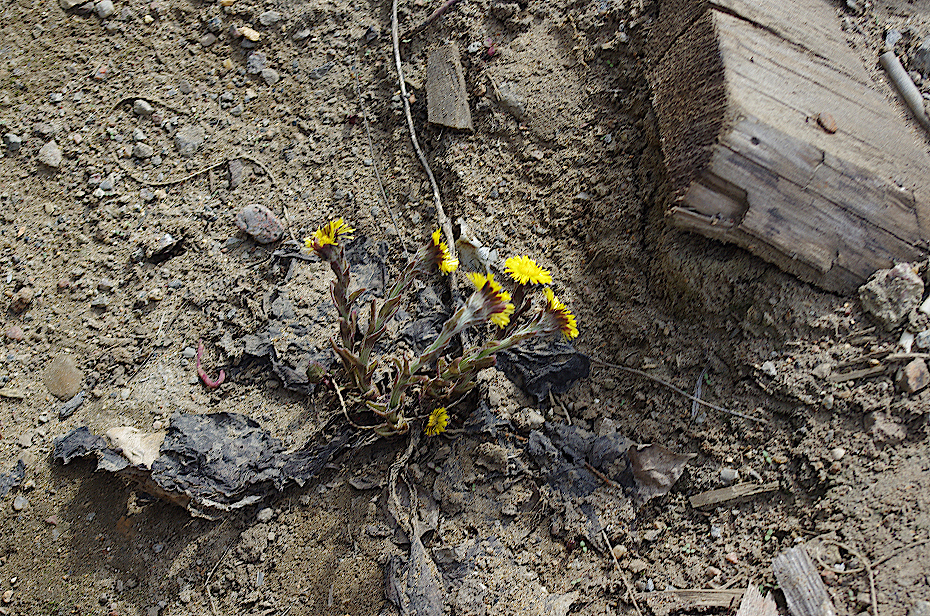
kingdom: Plantae
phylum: Tracheophyta
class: Magnoliopsida
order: Asterales
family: Asteraceae
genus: Tussilago
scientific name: Tussilago farfara
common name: Coltsfoot
